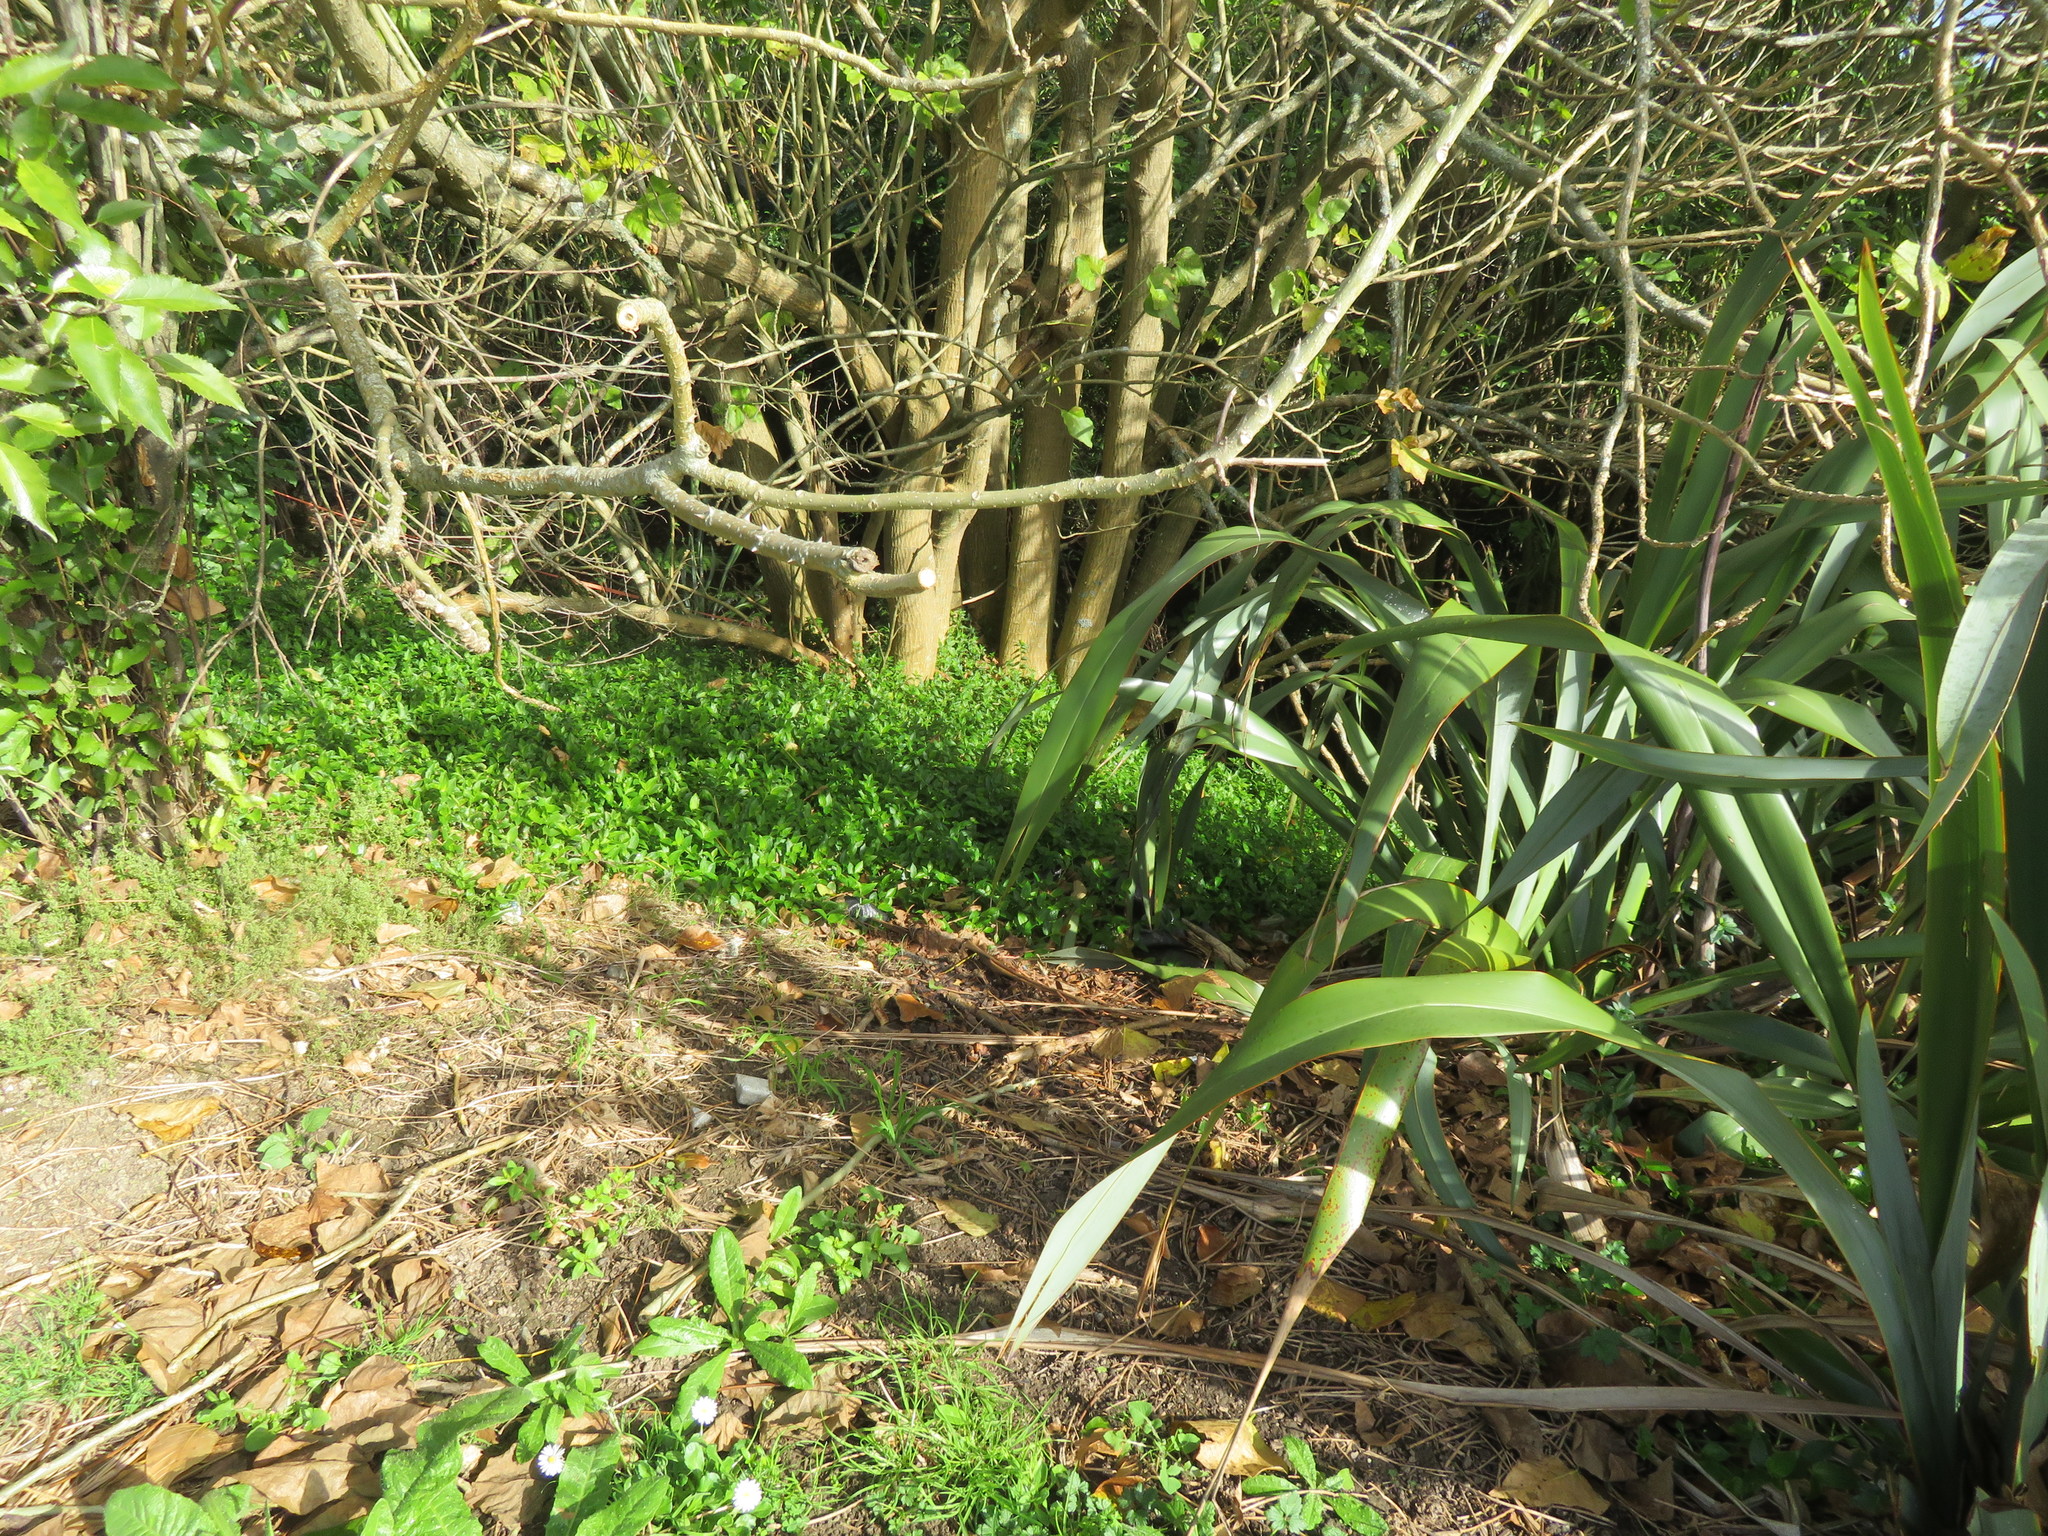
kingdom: Plantae
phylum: Tracheophyta
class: Liliopsida
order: Commelinales
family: Commelinaceae
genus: Tradescantia
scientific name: Tradescantia fluminensis
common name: Wandering-jew
